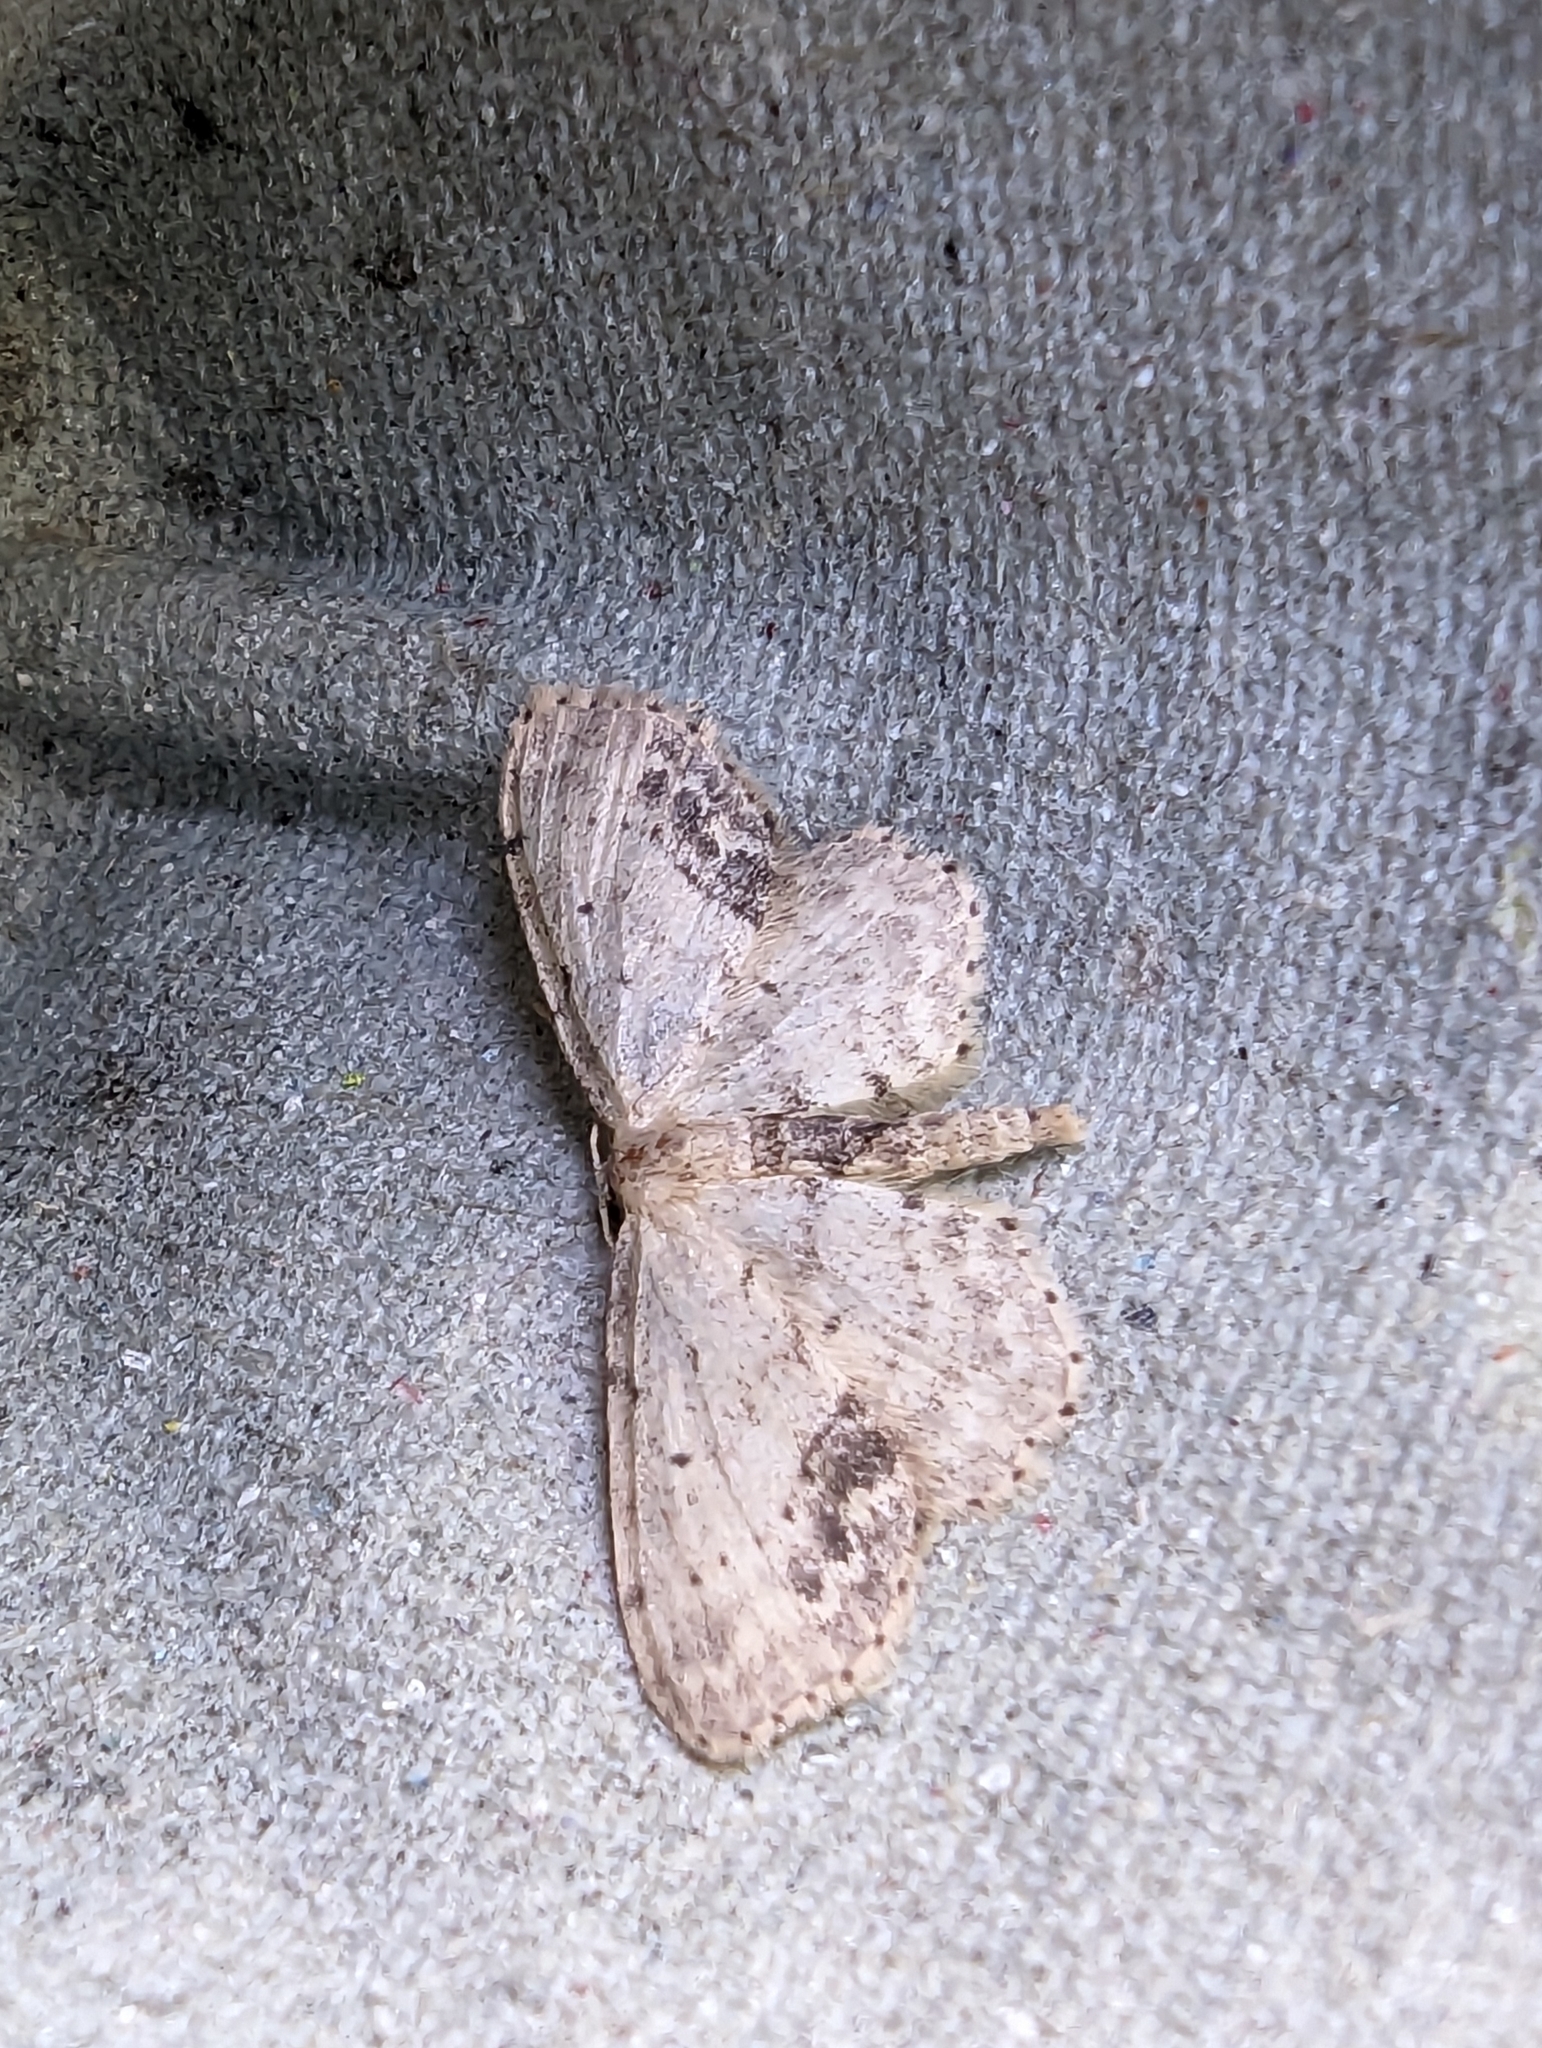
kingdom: Animalia
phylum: Arthropoda
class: Insecta
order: Lepidoptera
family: Geometridae
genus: Idaea
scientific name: Idaea dimidiata
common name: Single-dotted wave
